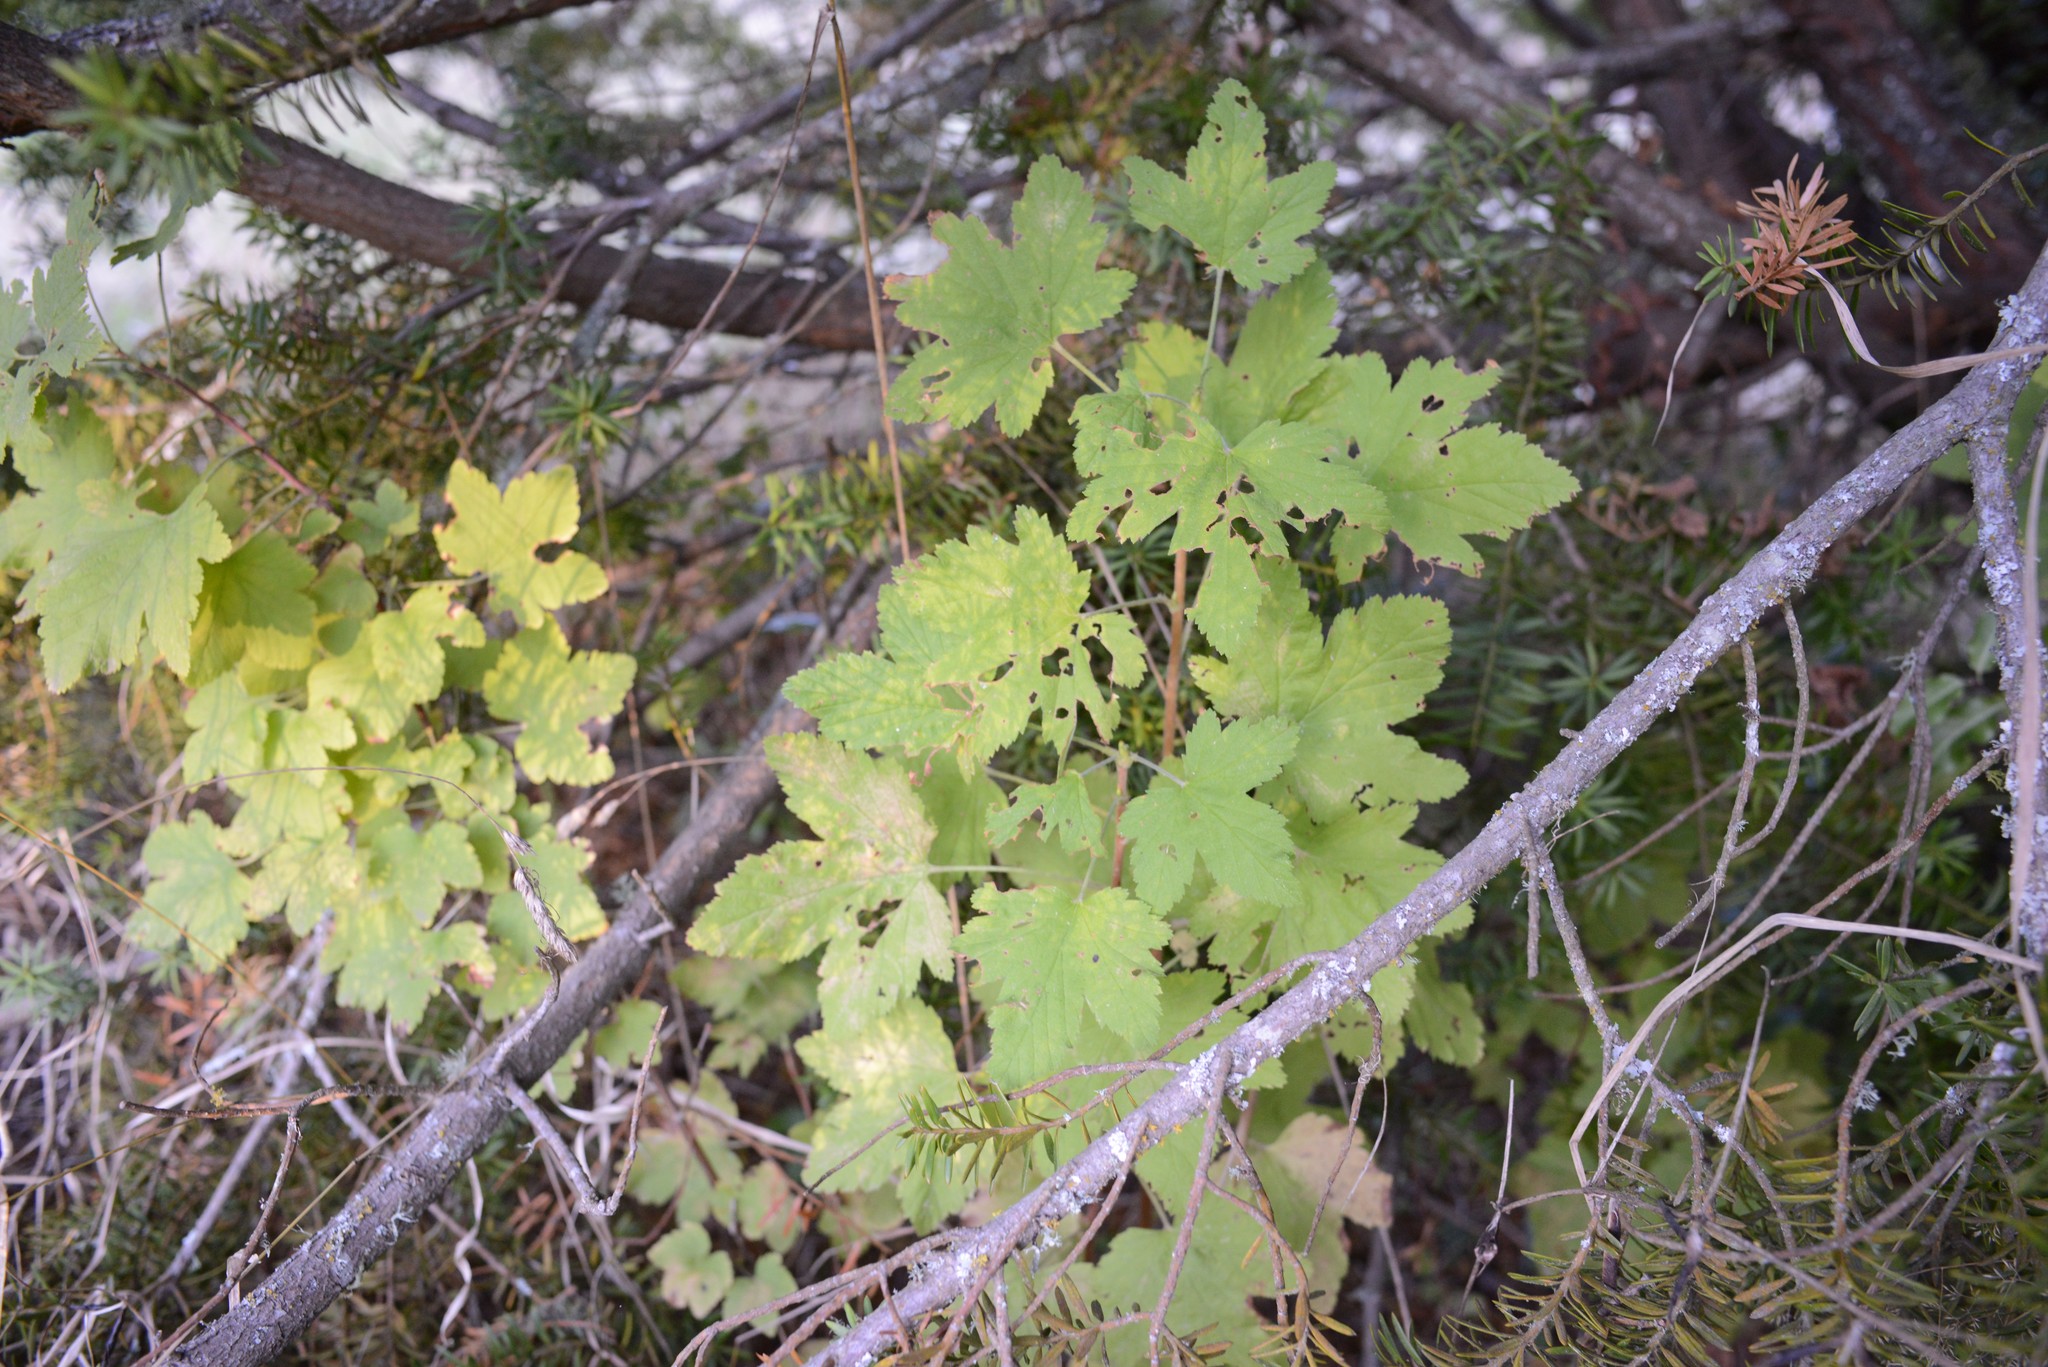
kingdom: Plantae
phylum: Tracheophyta
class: Magnoliopsida
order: Saxifragales
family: Grossulariaceae
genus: Ribes
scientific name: Ribes sanguineum
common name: Flowering currant
